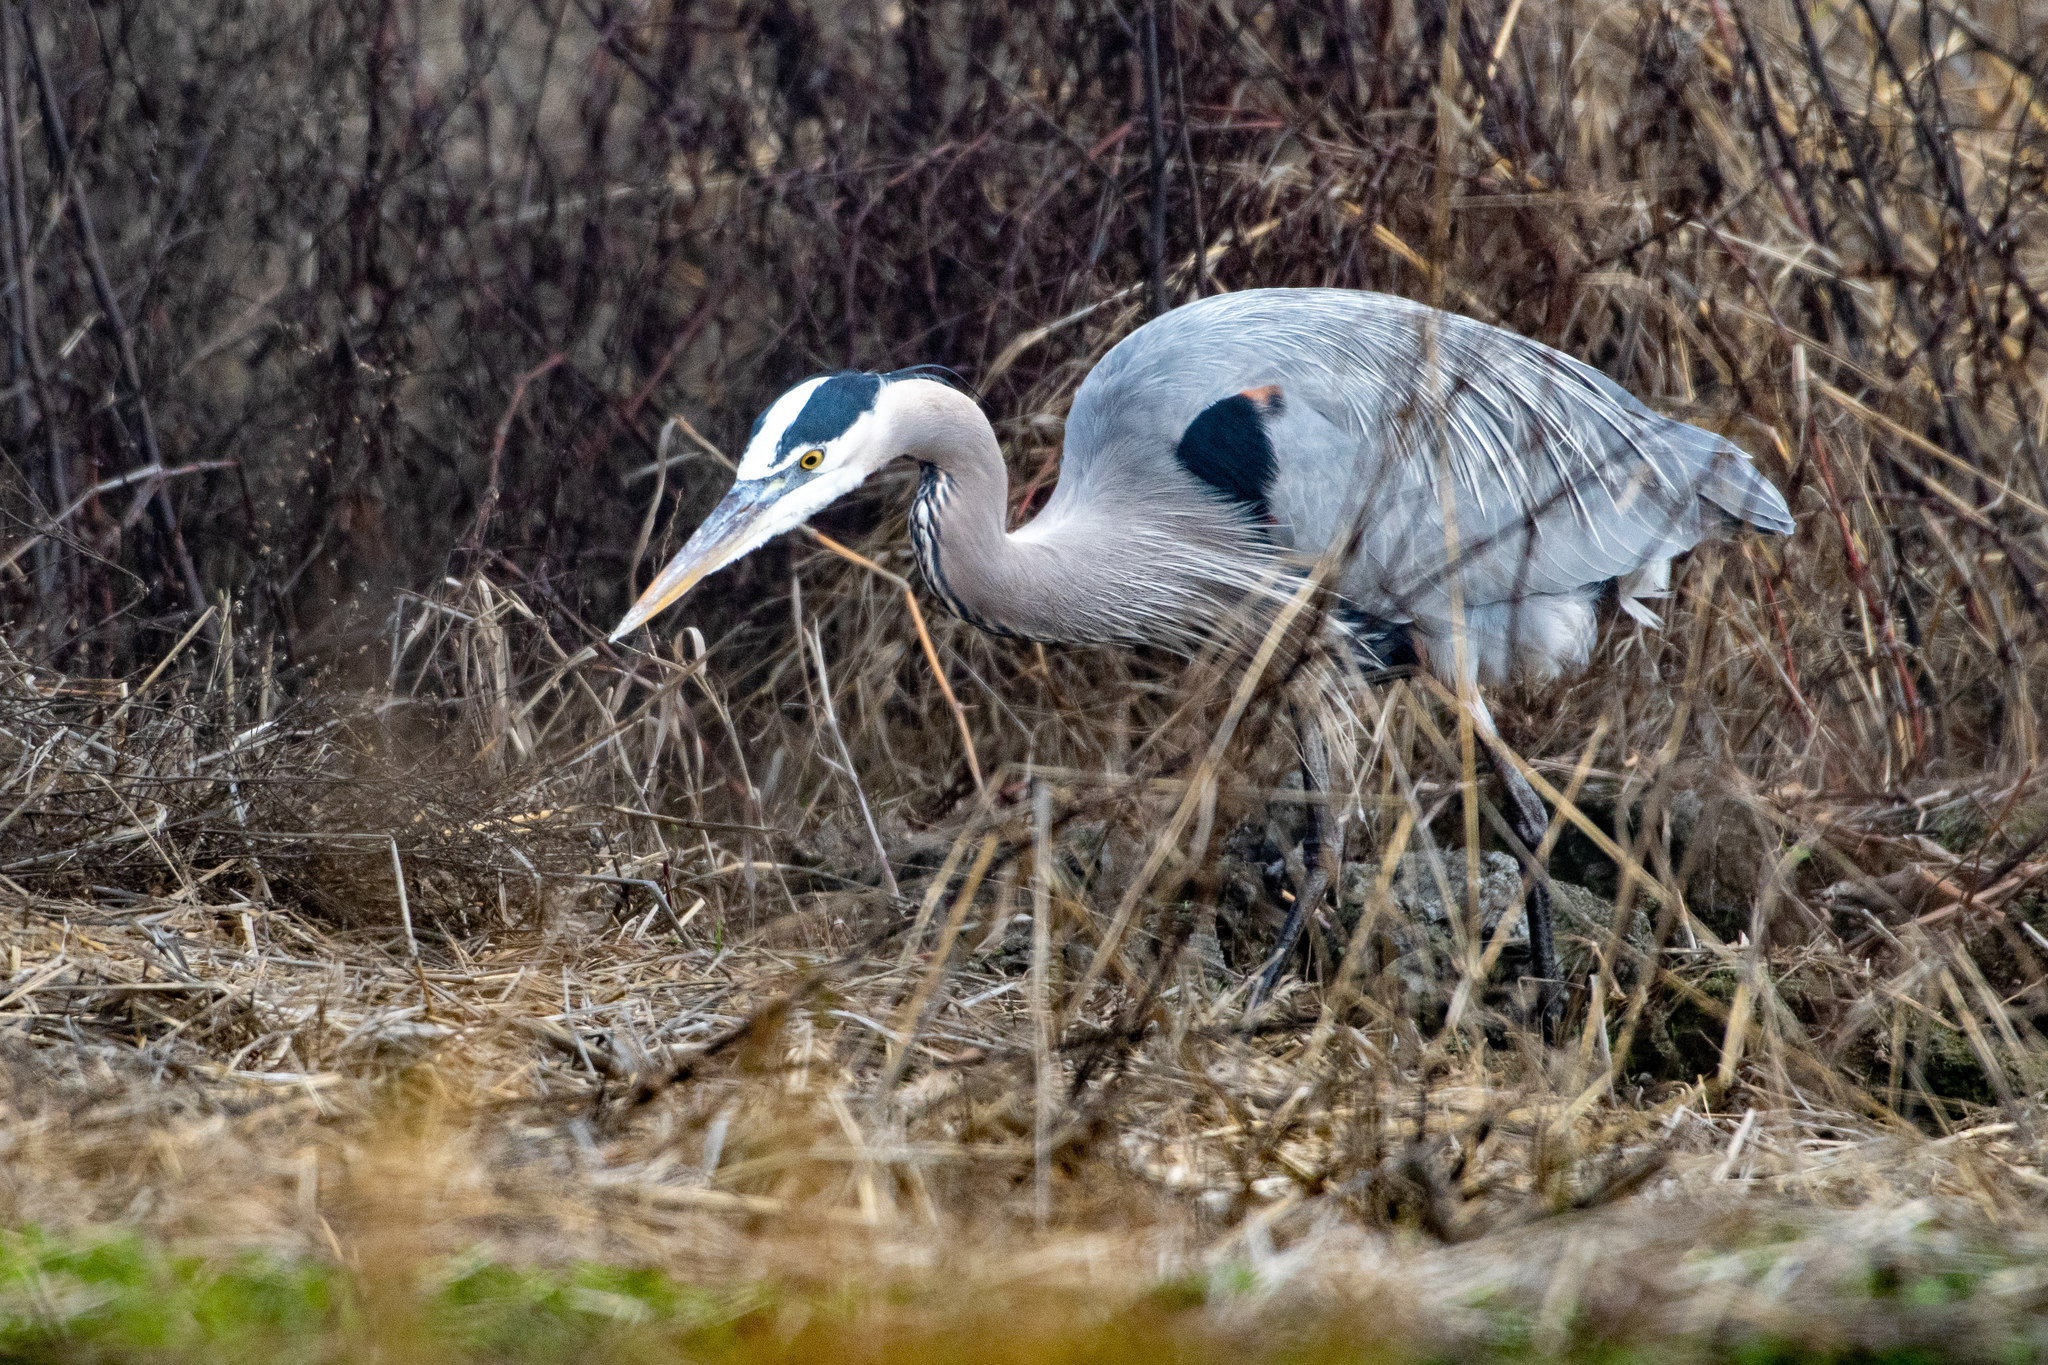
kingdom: Animalia
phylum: Chordata
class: Aves
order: Pelecaniformes
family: Ardeidae
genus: Ardea
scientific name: Ardea herodias
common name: Great blue heron
